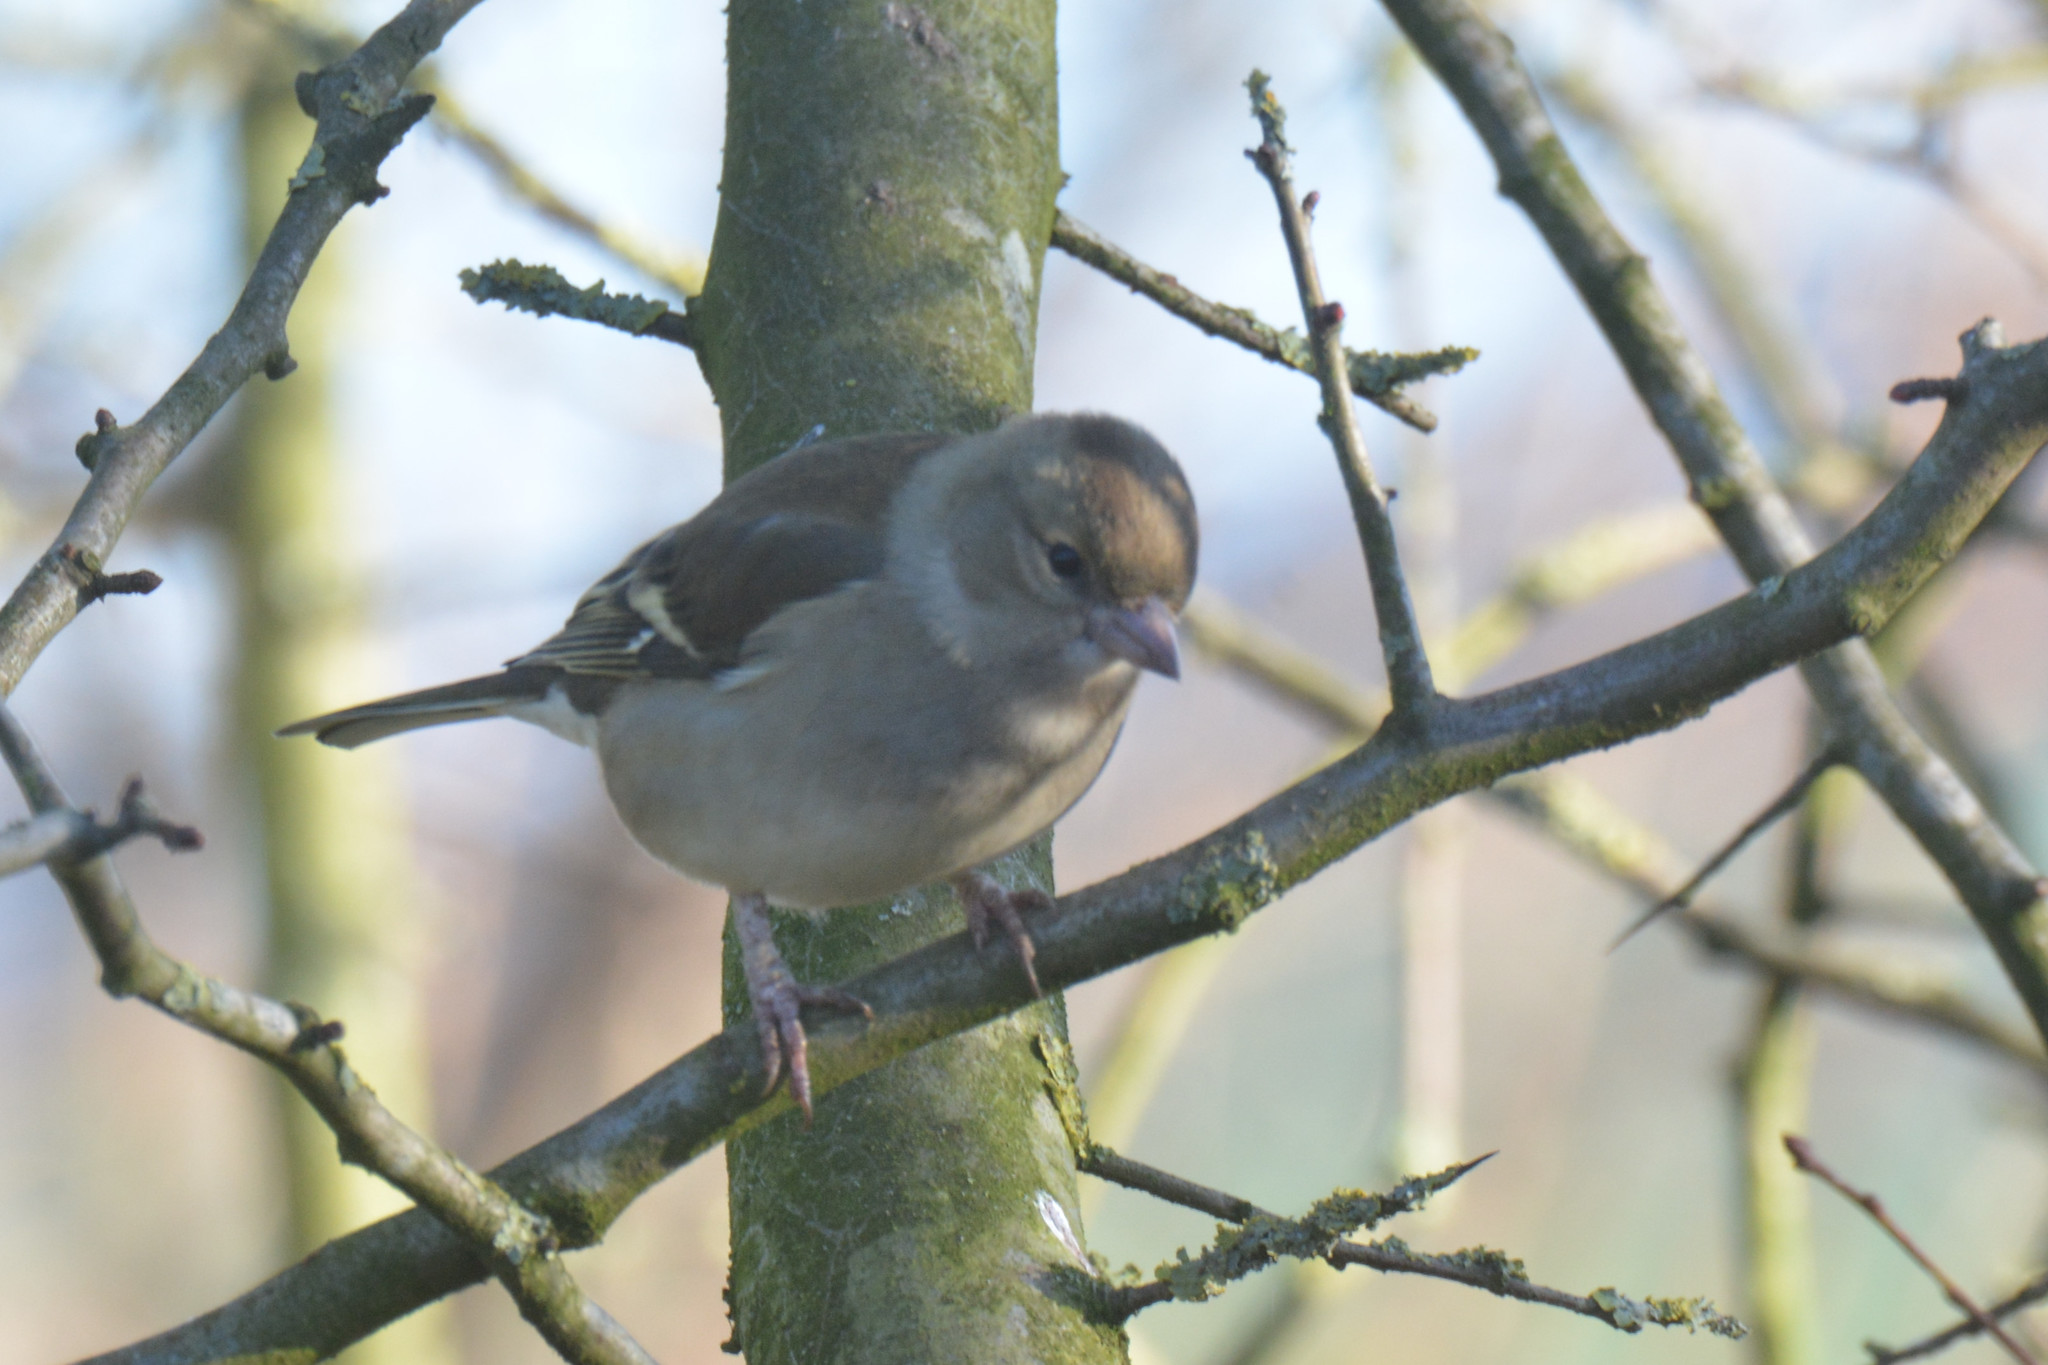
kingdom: Animalia
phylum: Chordata
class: Aves
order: Passeriformes
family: Fringillidae
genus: Fringilla
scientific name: Fringilla coelebs
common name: Common chaffinch
